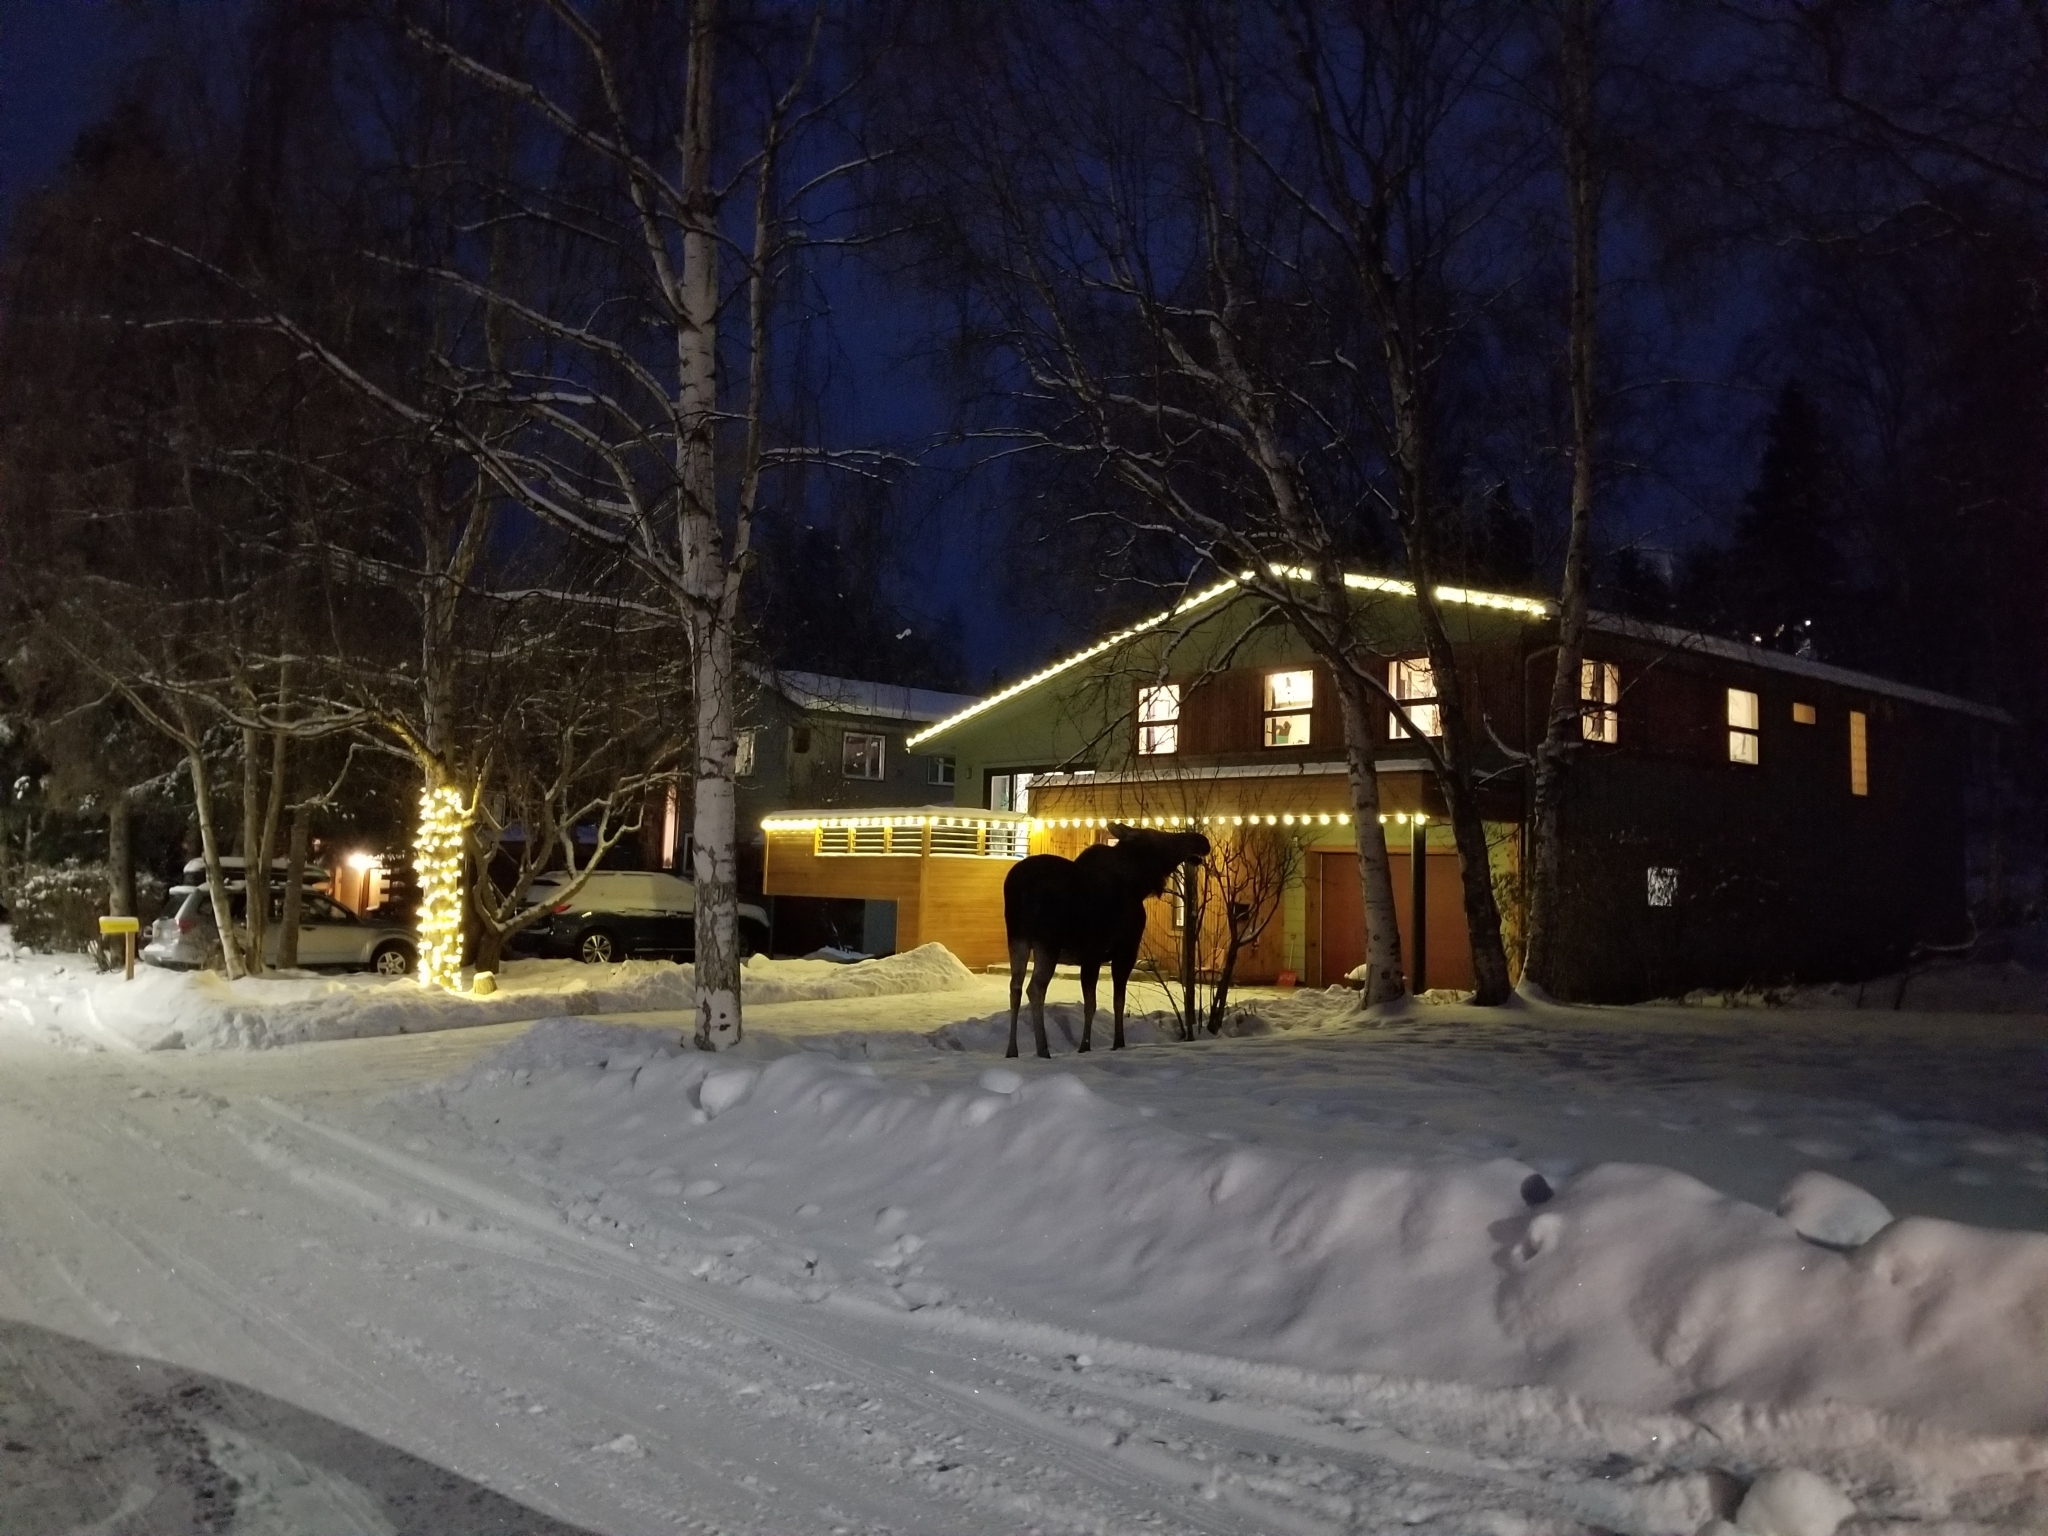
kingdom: Animalia
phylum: Chordata
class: Mammalia
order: Artiodactyla
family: Cervidae
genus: Alces
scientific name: Alces alces
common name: Moose
